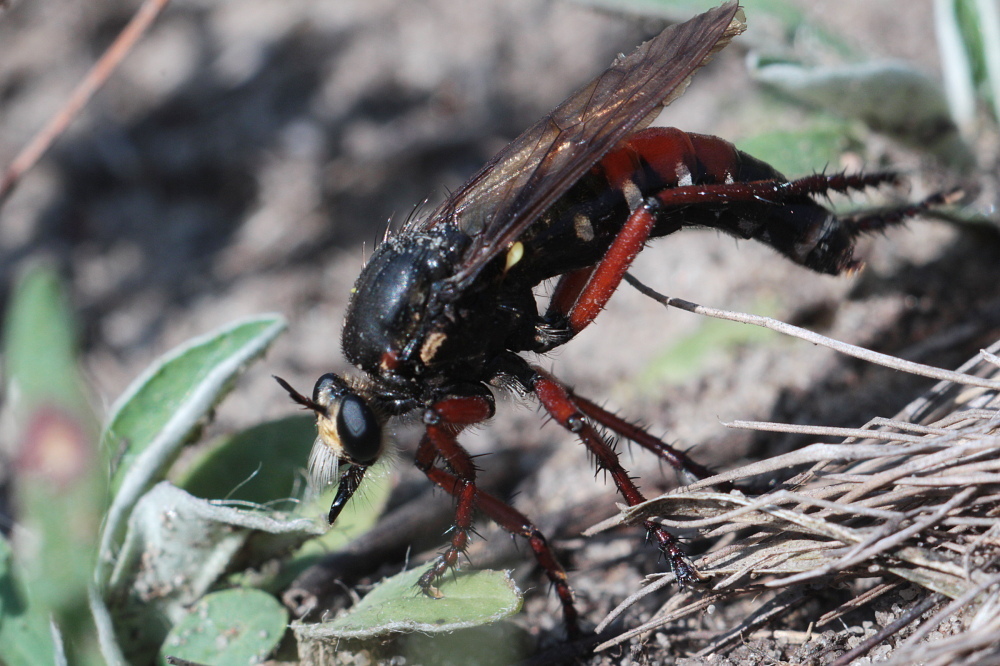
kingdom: Animalia
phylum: Arthropoda
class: Insecta
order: Diptera
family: Asilidae
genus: Dasypogon
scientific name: Dasypogon diadema
